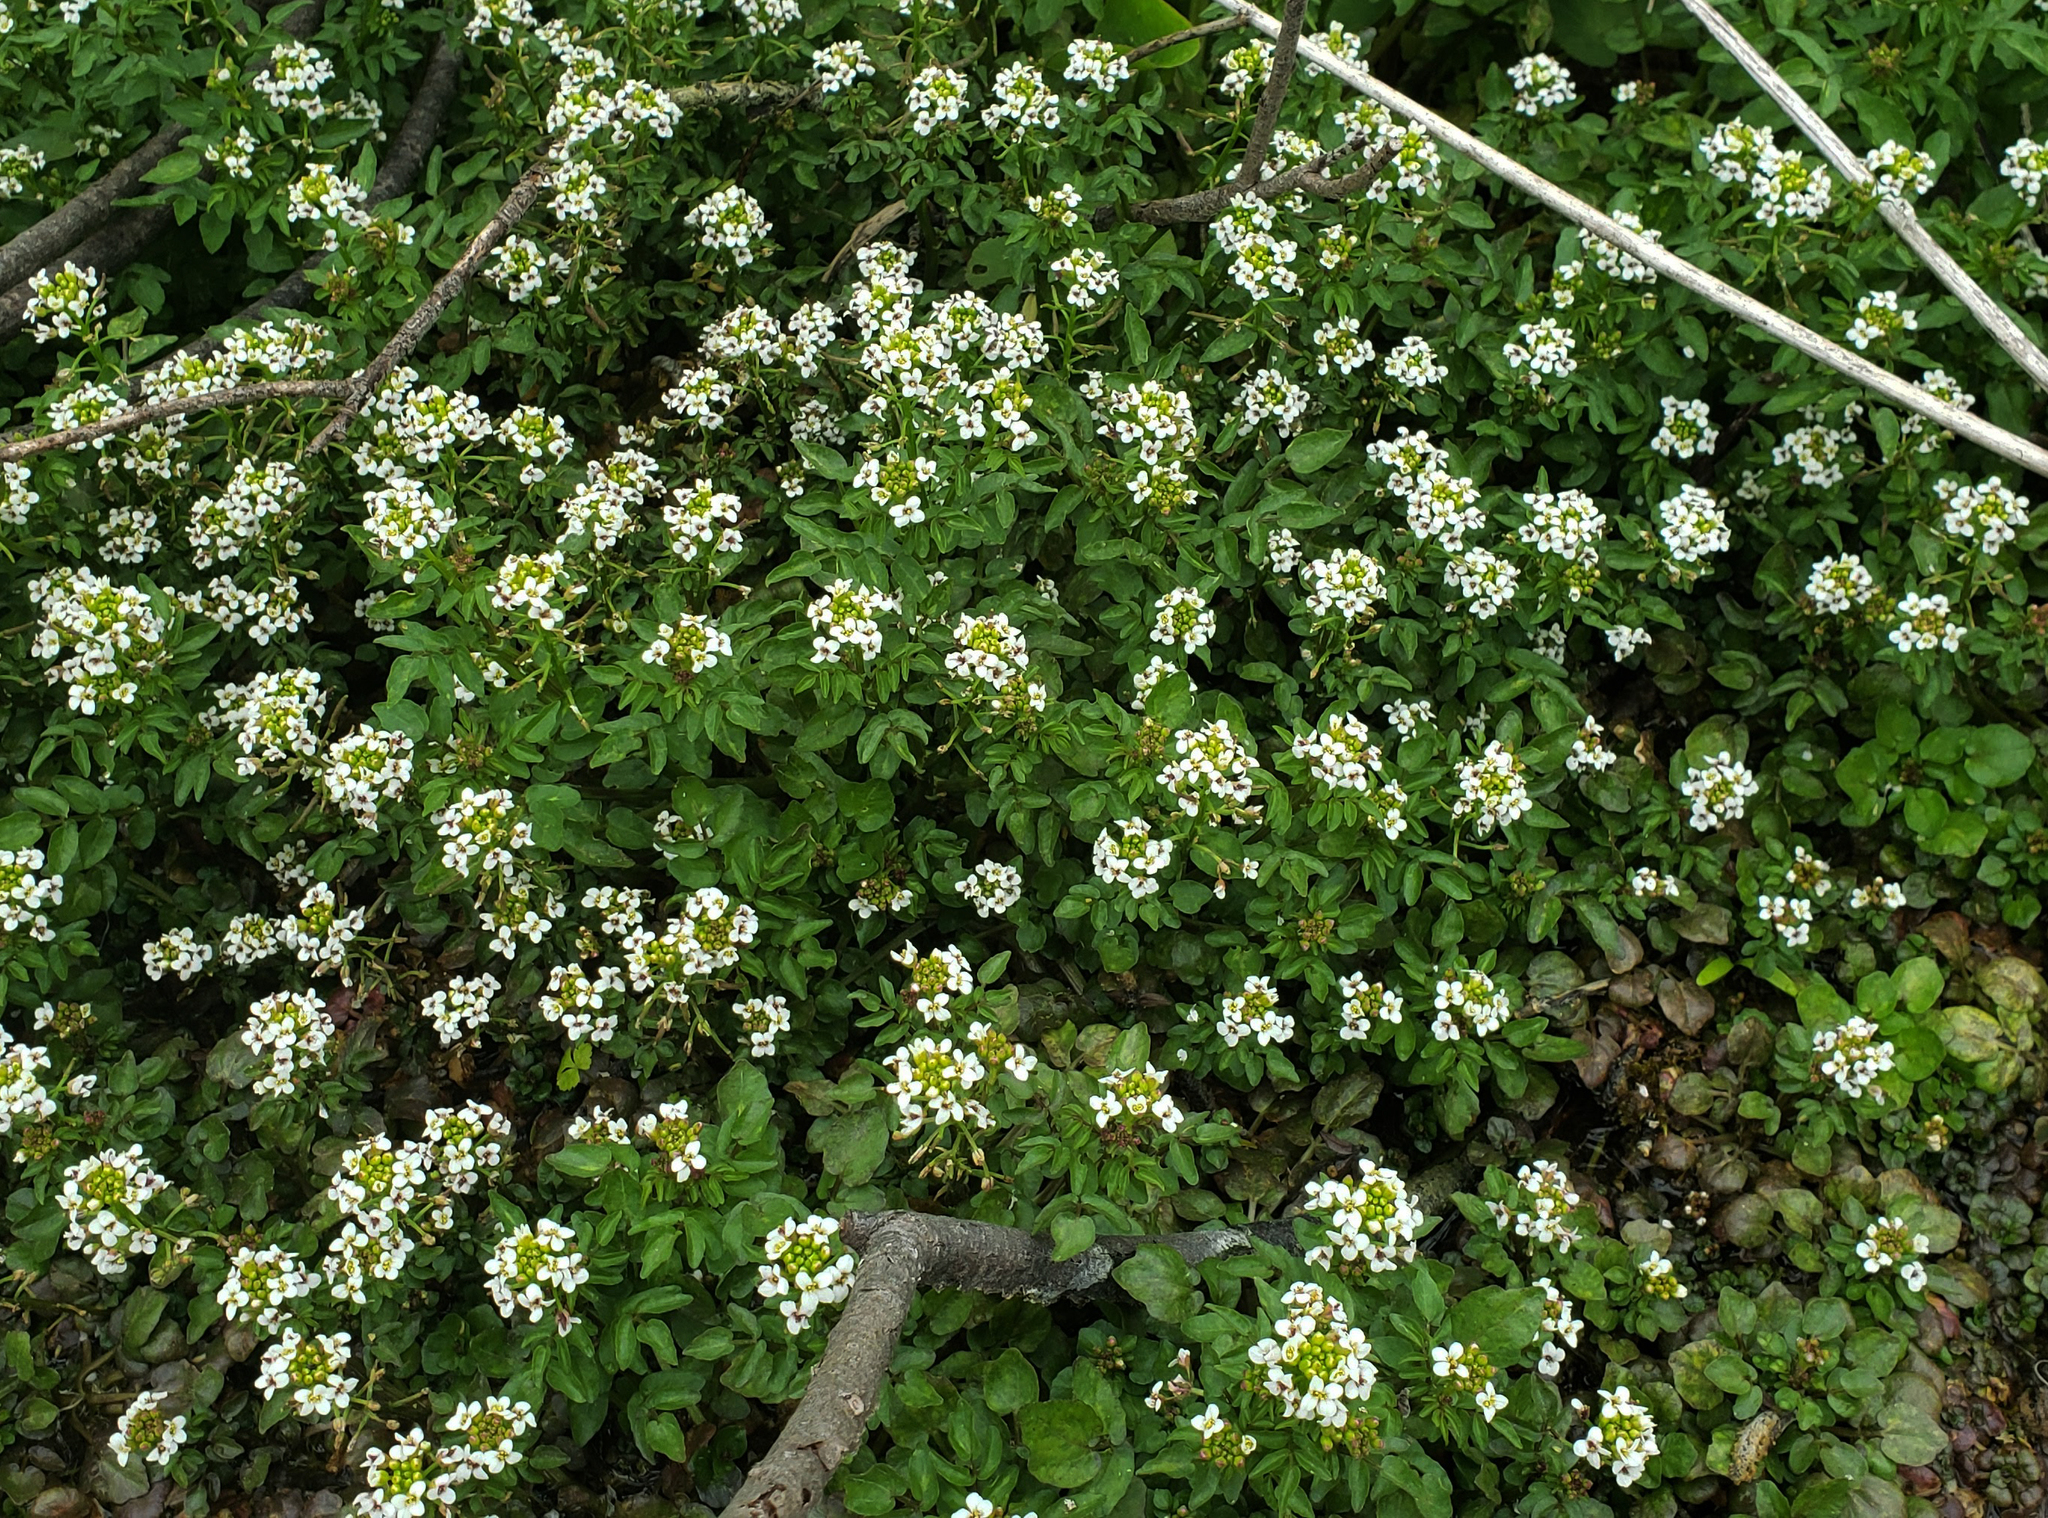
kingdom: Plantae
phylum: Tracheophyta
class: Magnoliopsida
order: Brassicales
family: Brassicaceae
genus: Nasturtium
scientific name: Nasturtium officinale
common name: Watercress
